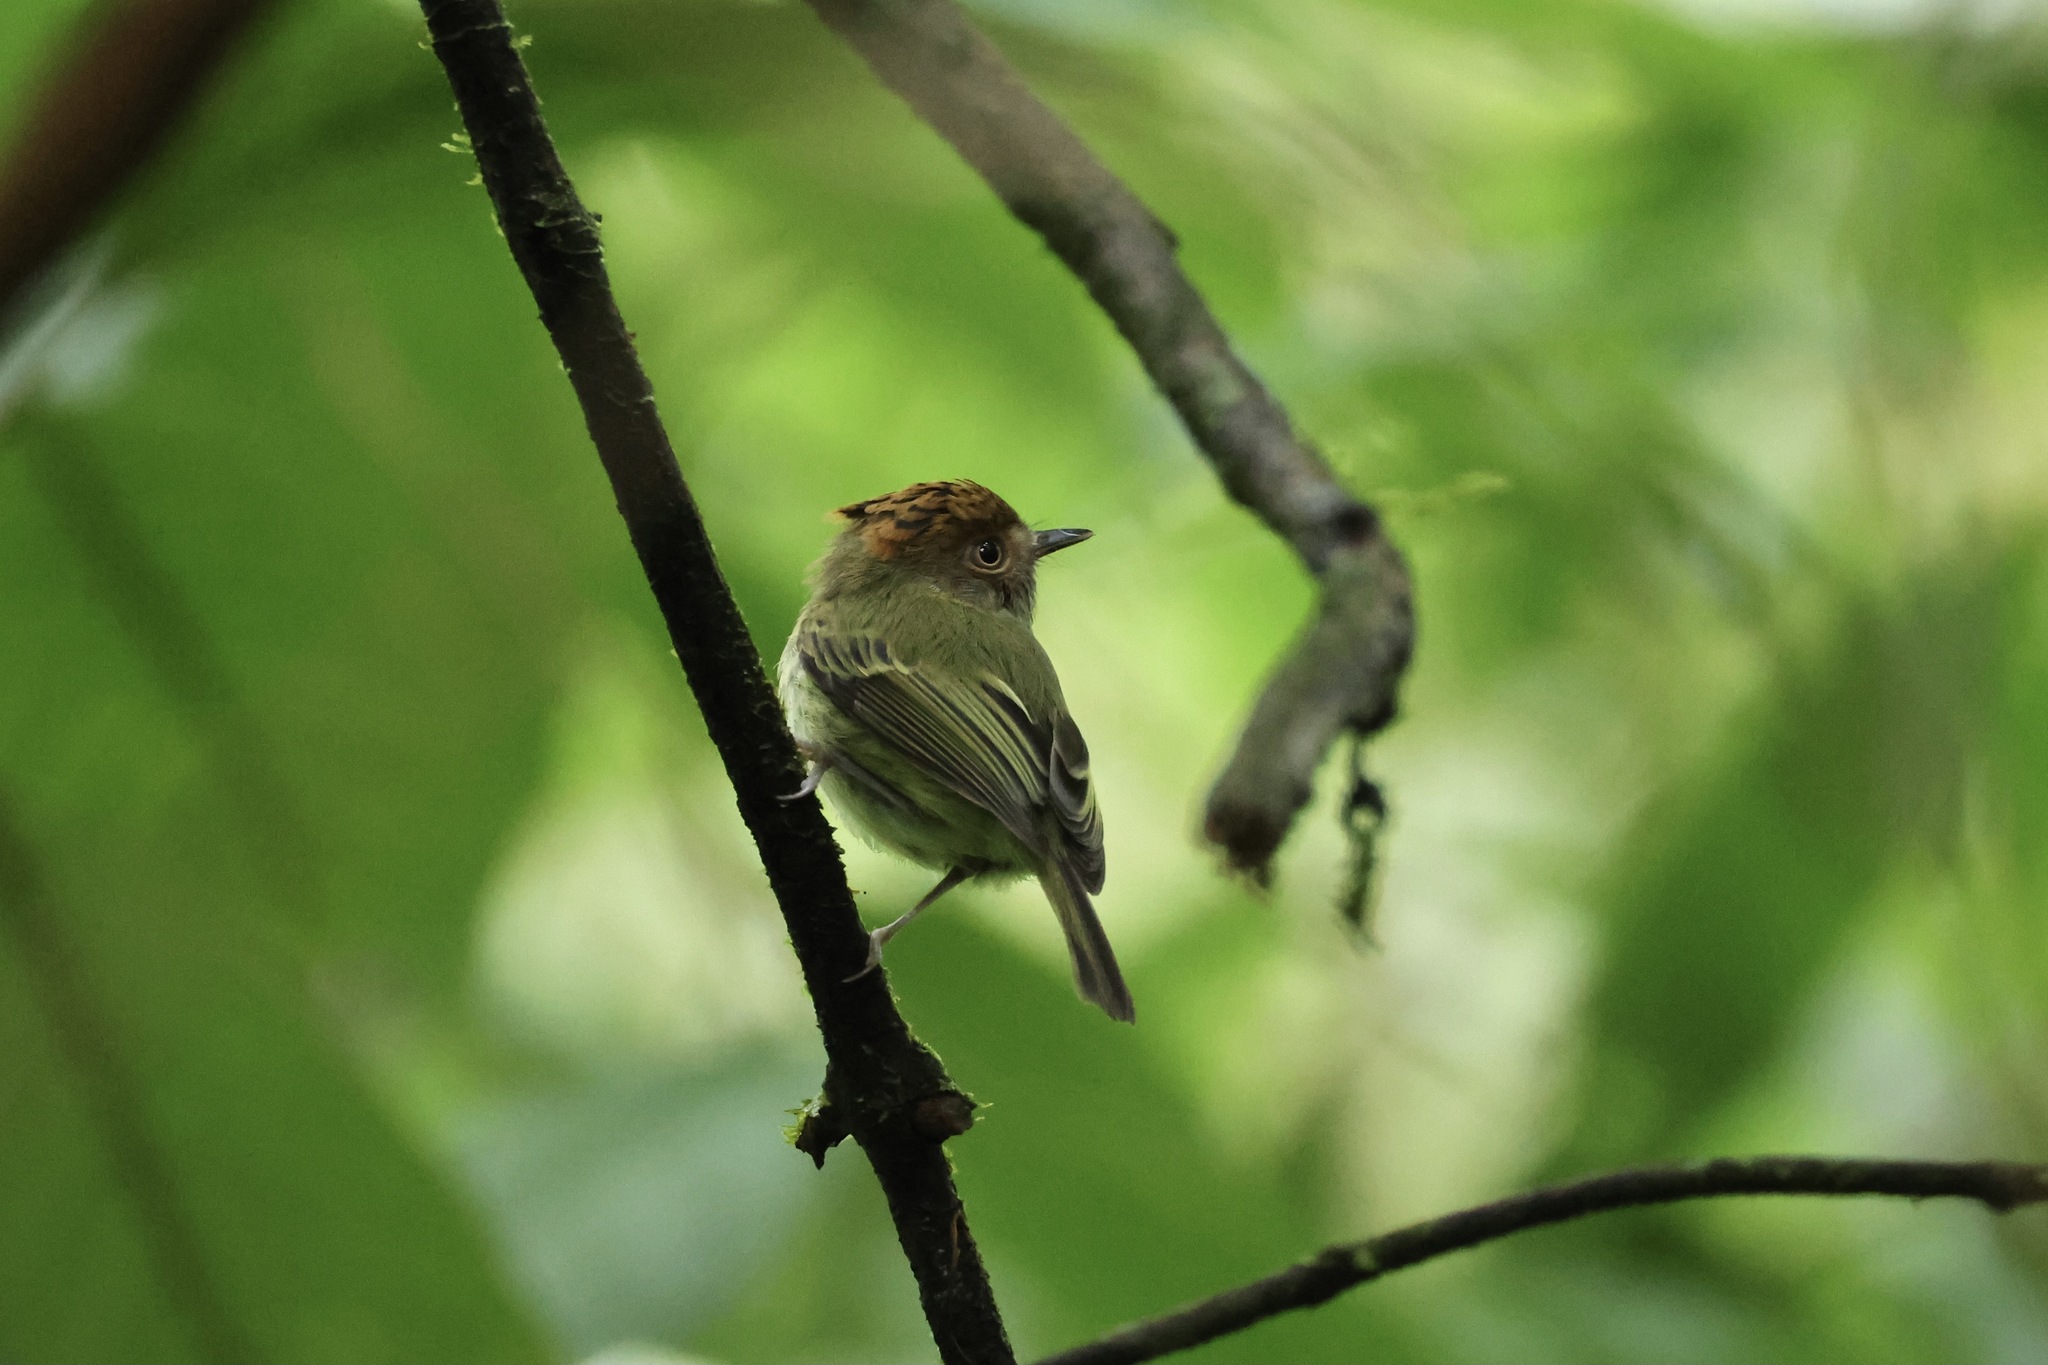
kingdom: Animalia
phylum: Chordata
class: Aves
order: Passeriformes
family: Tyrannidae
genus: Lophotriccus
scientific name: Lophotriccus pileatus
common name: Scale-crested pygmy-tyrant
